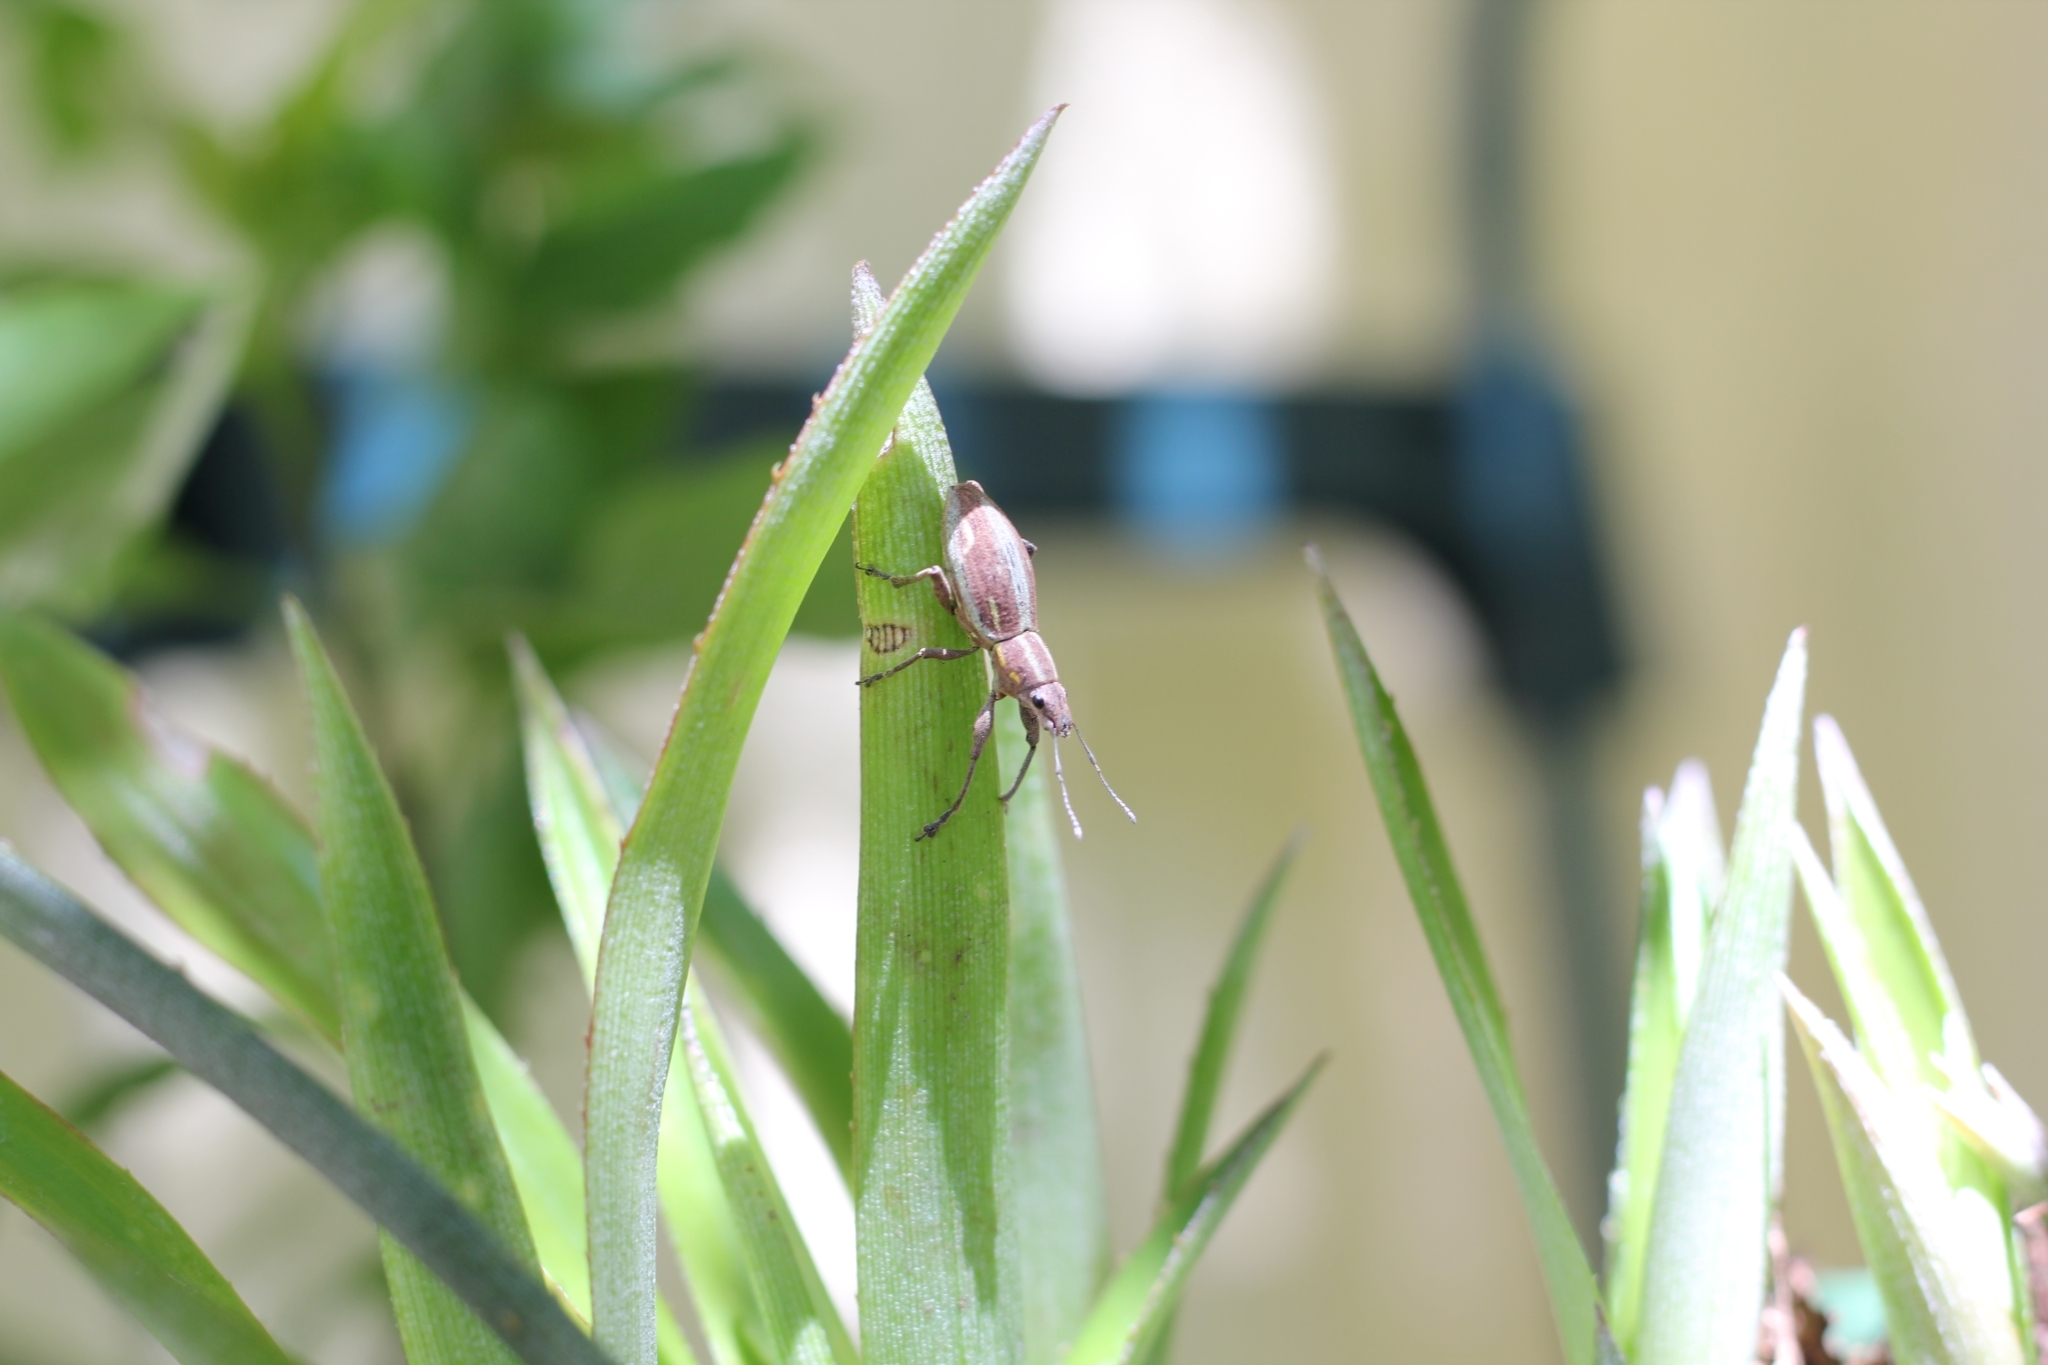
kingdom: Animalia
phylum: Arthropoda
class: Insecta
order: Coleoptera
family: Curculionidae
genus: Naupactus
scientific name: Naupactus xanthographus
